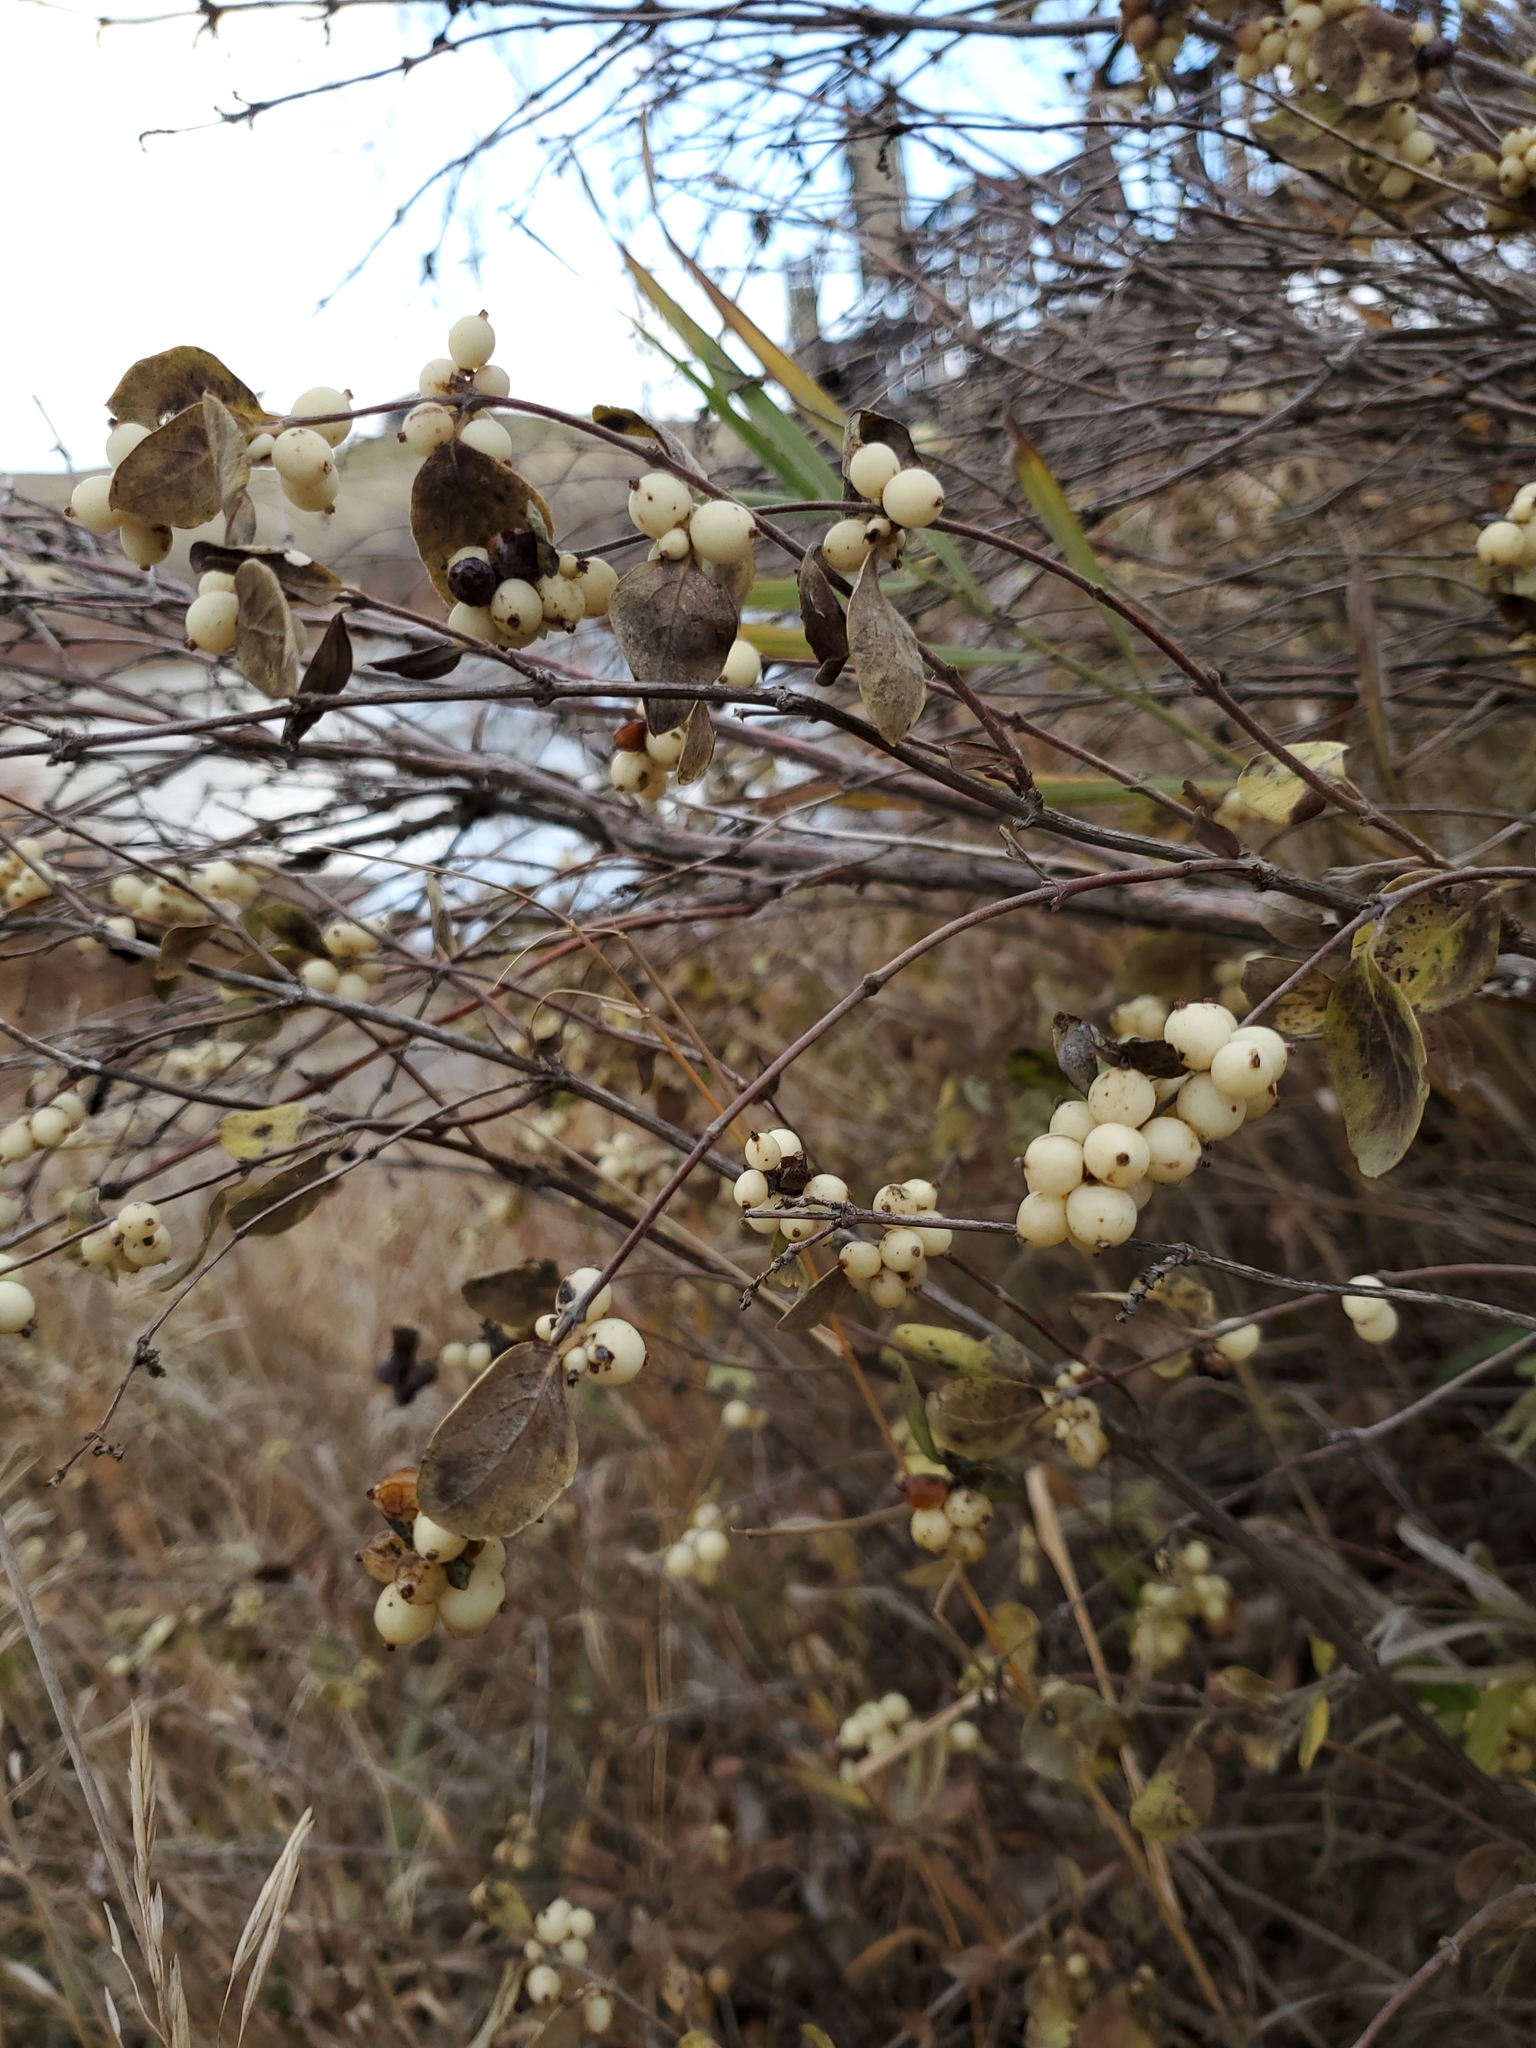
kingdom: Plantae
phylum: Tracheophyta
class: Magnoliopsida
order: Dipsacales
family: Caprifoliaceae
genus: Symphoricarpos
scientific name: Symphoricarpos occidentalis
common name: Wolfberry
